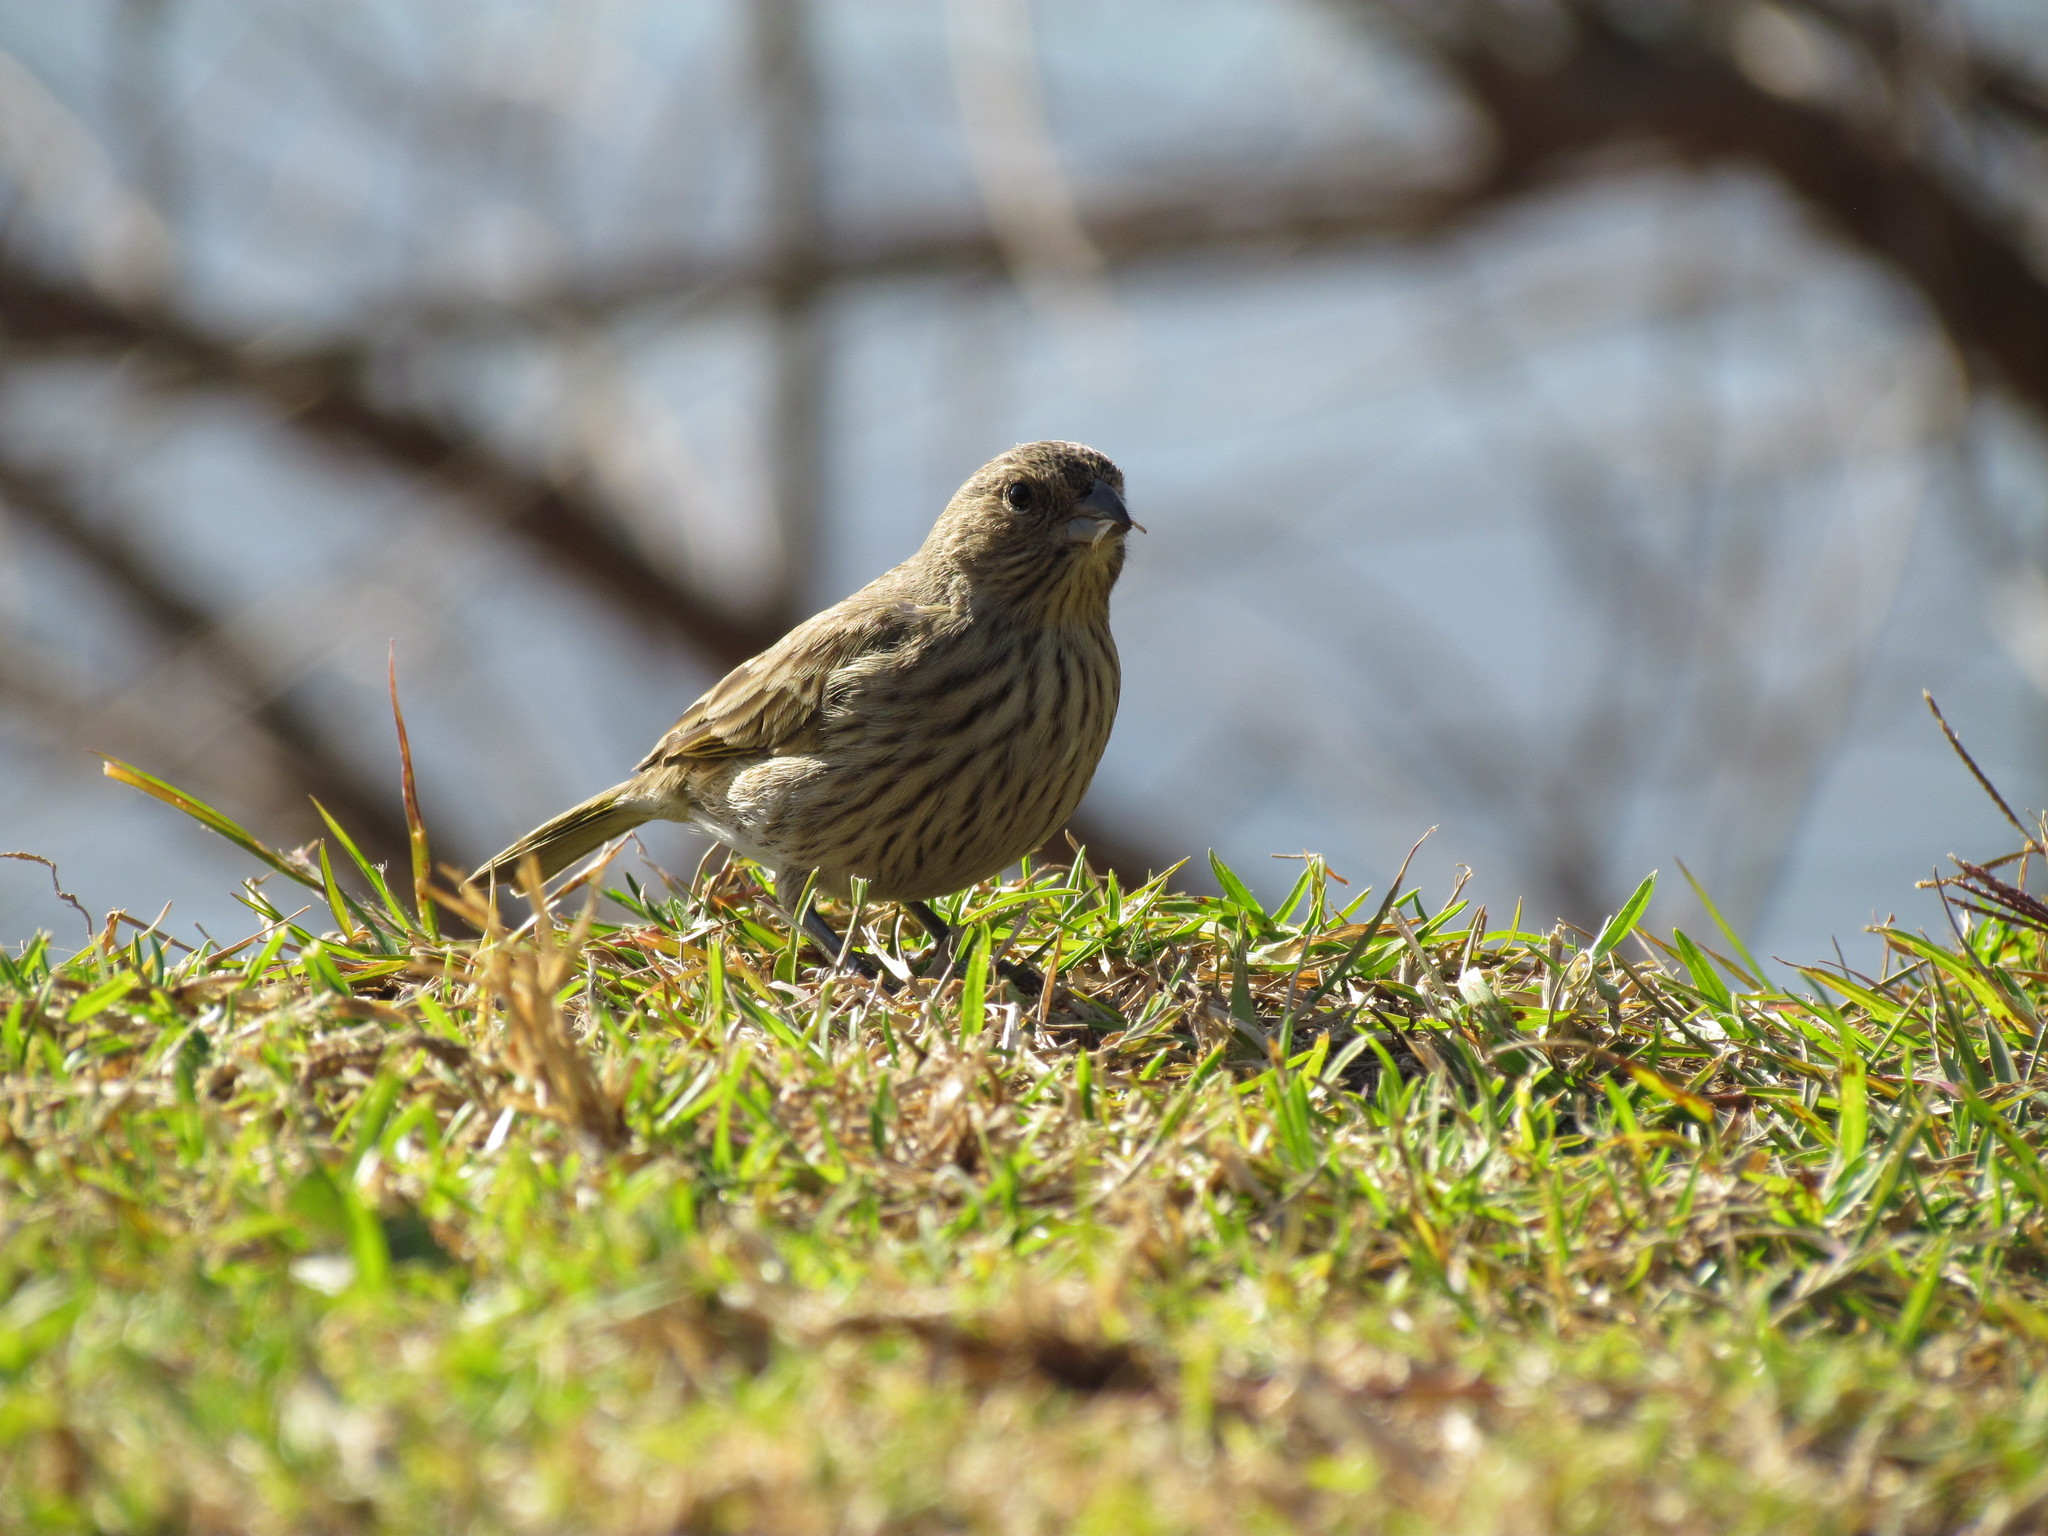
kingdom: Animalia
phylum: Chordata
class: Aves
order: Passeriformes
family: Thraupidae
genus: Sicalis
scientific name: Sicalis flaveola
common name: Saffron finch
